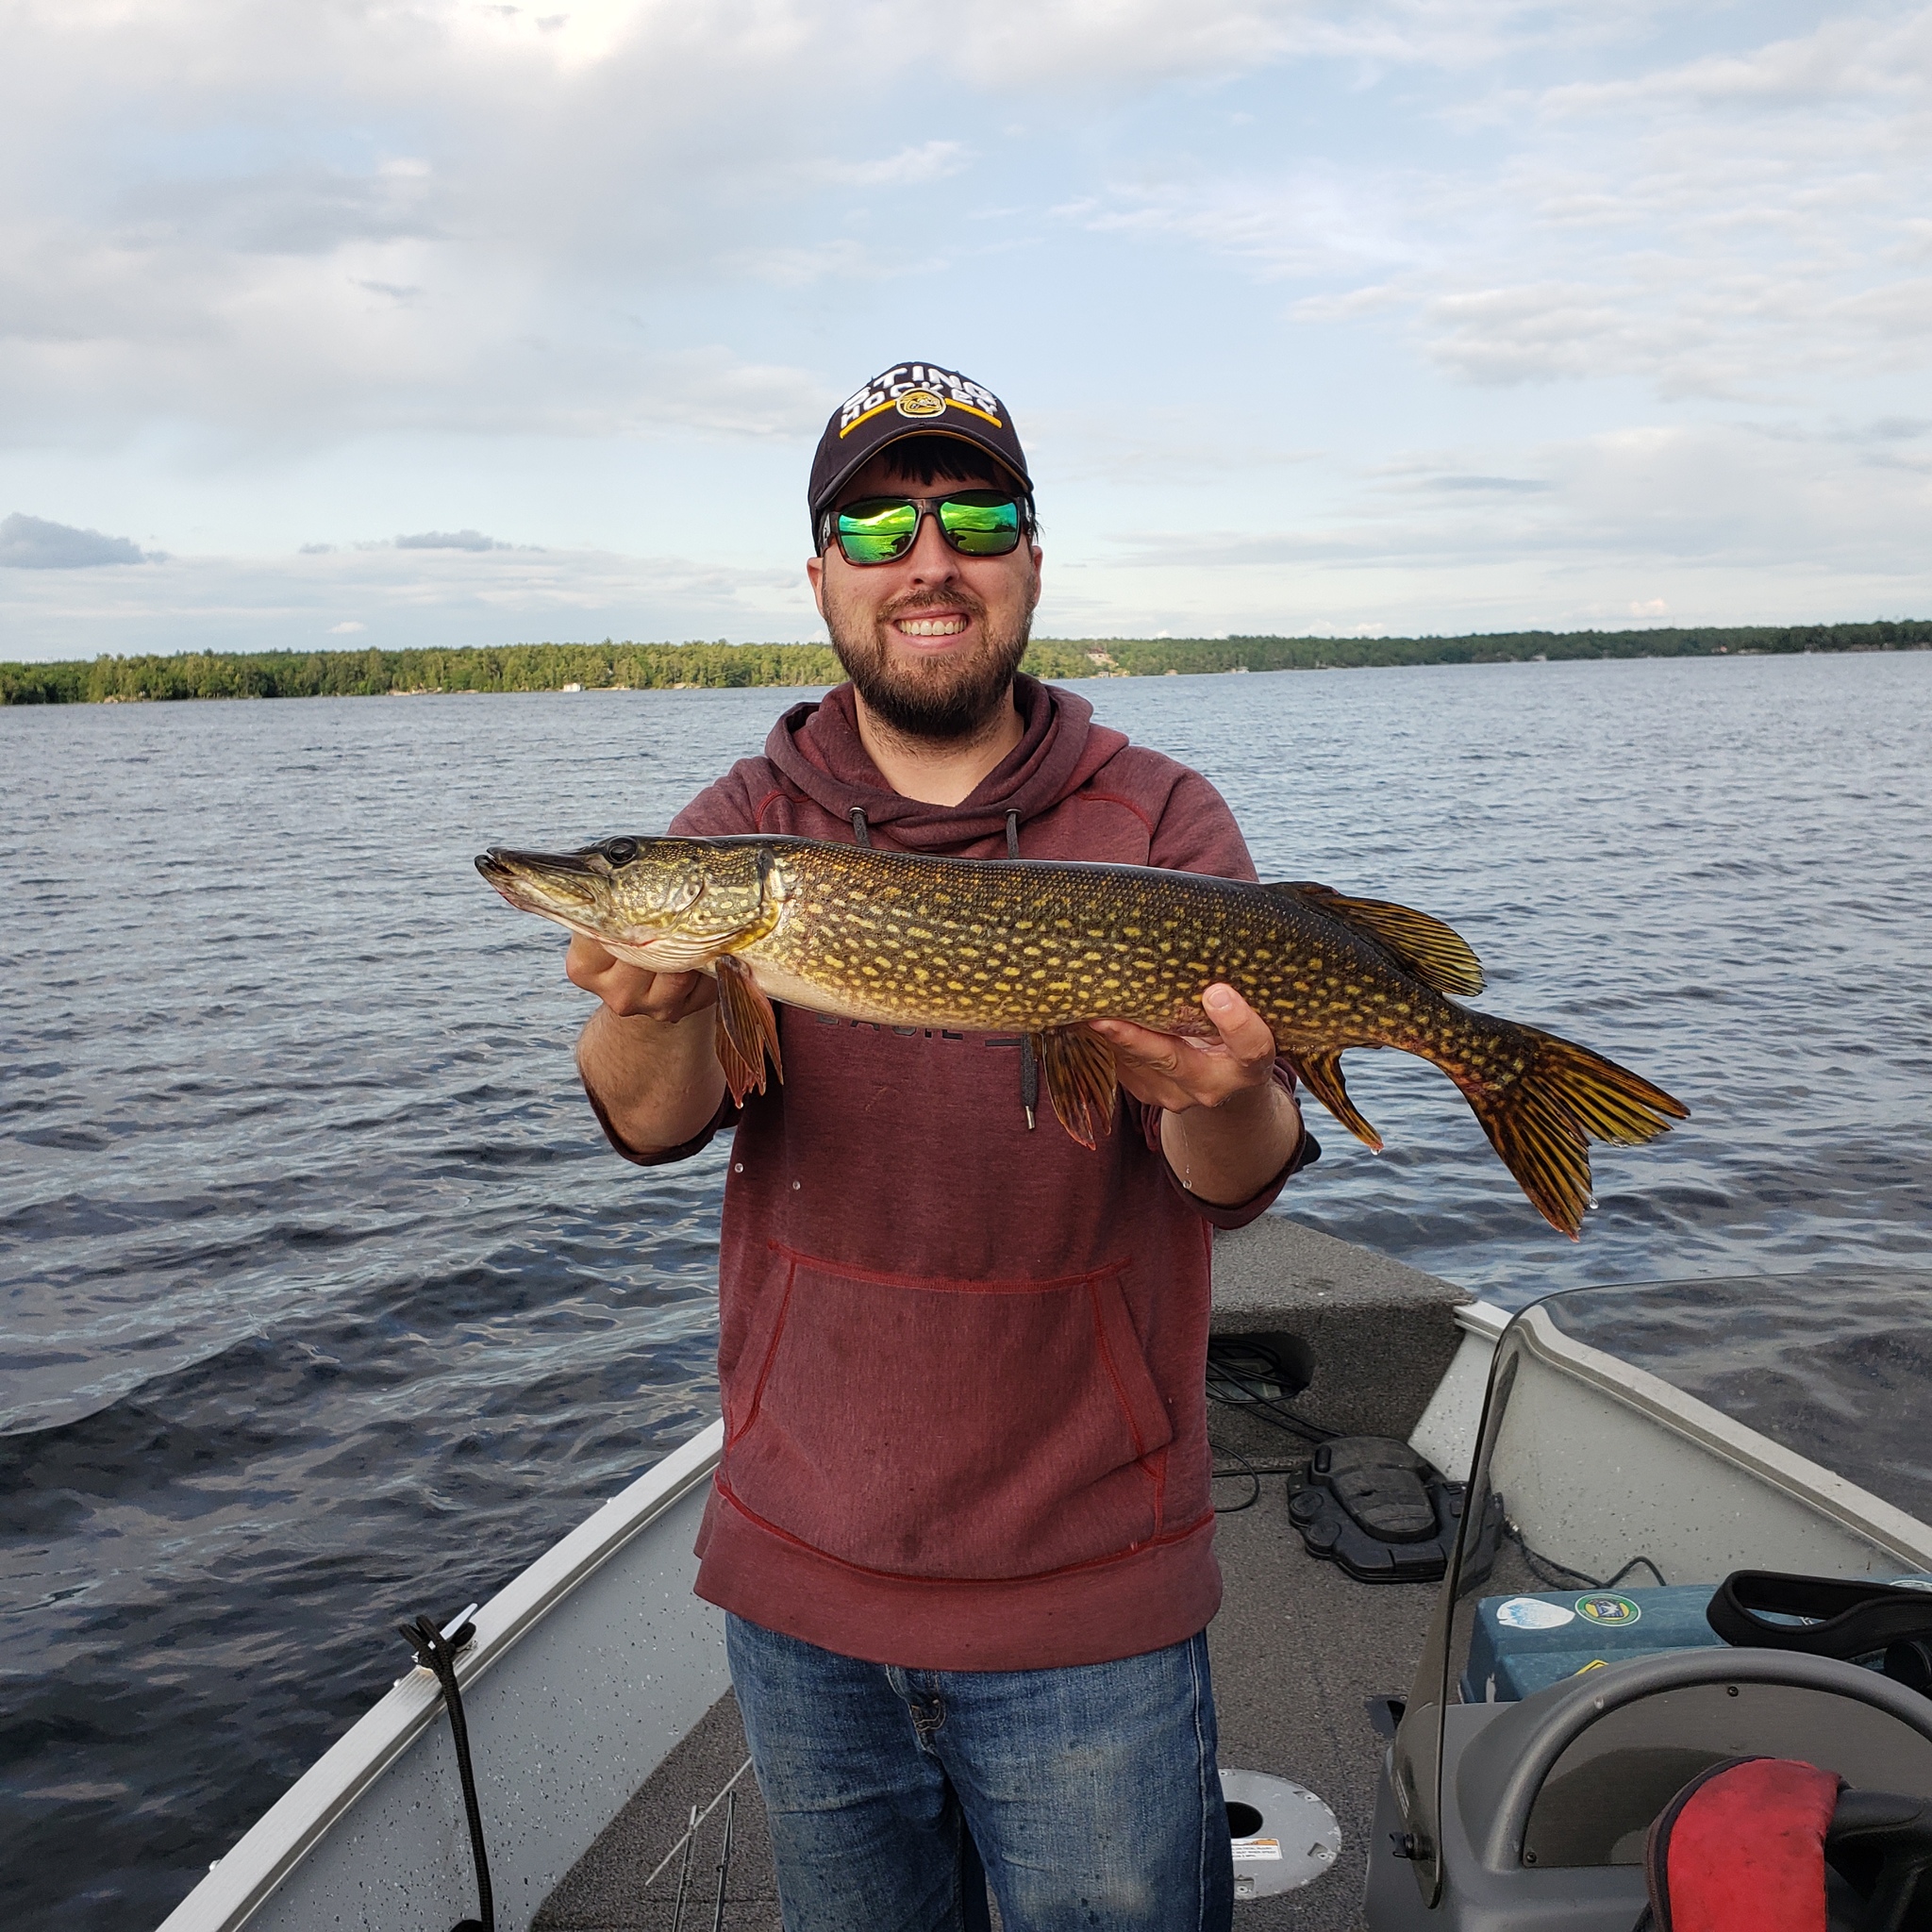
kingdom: Animalia
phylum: Chordata
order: Esociformes
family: Esocidae
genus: Esox
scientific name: Esox lucius
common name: Northern pike
